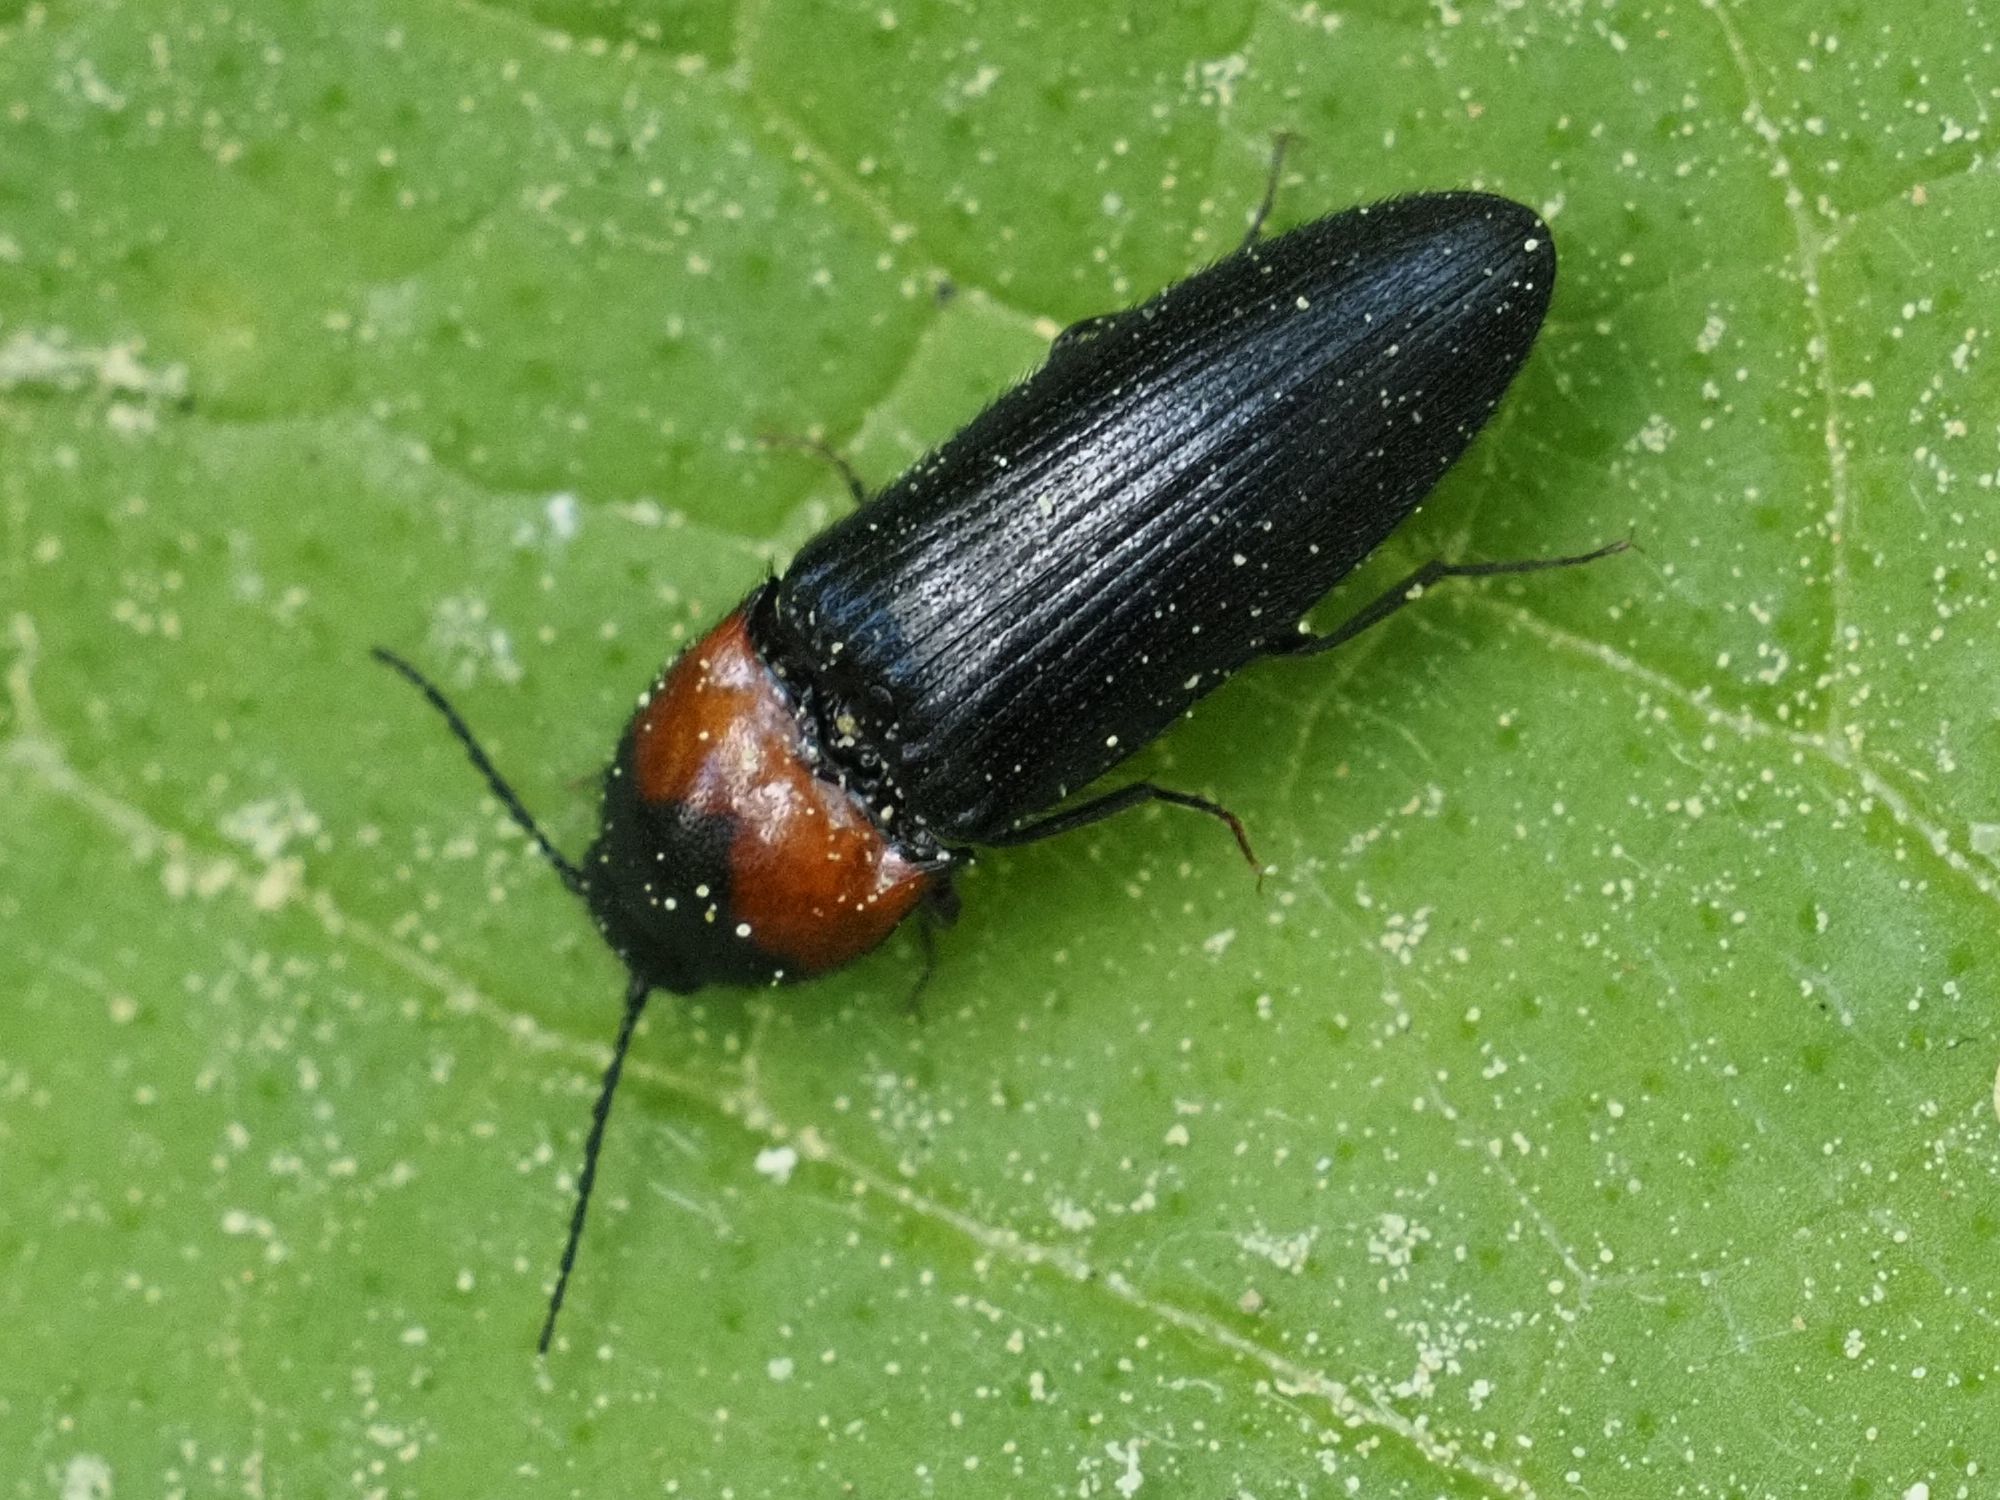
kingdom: Animalia
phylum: Arthropoda
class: Insecta
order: Coleoptera
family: Elateridae
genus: Ampedus
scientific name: Ampedus sinuatus
